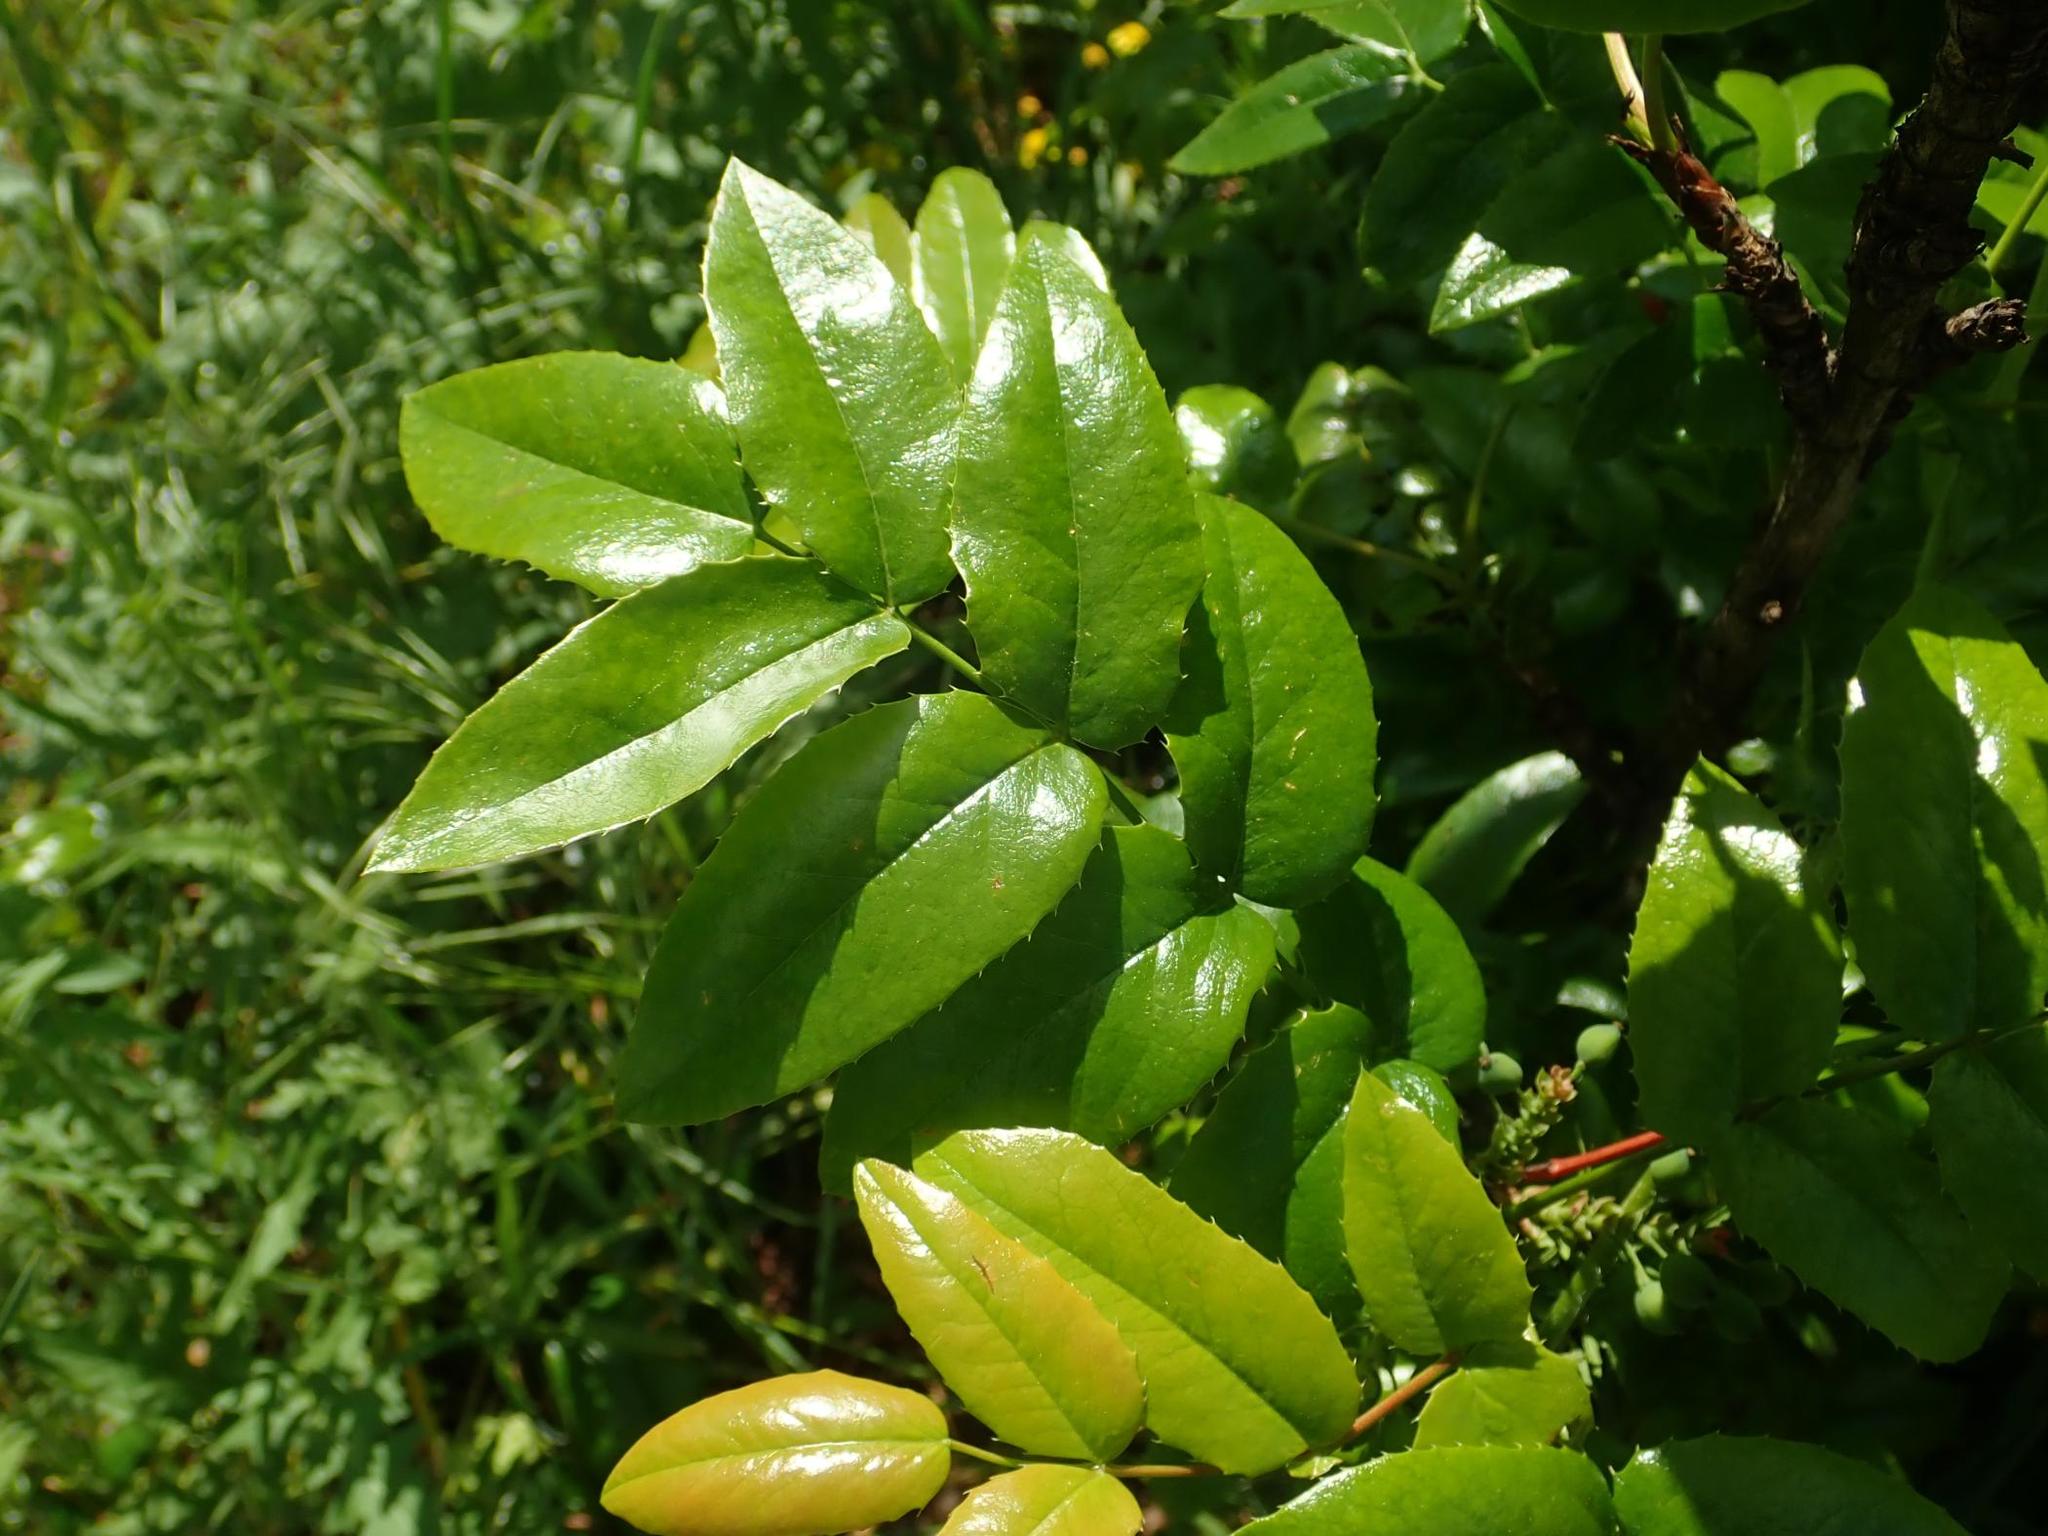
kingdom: Plantae
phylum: Tracheophyta
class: Magnoliopsida
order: Ranunculales
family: Berberidaceae
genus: Mahonia
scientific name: Mahonia aquifolium
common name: Oregon-grape
